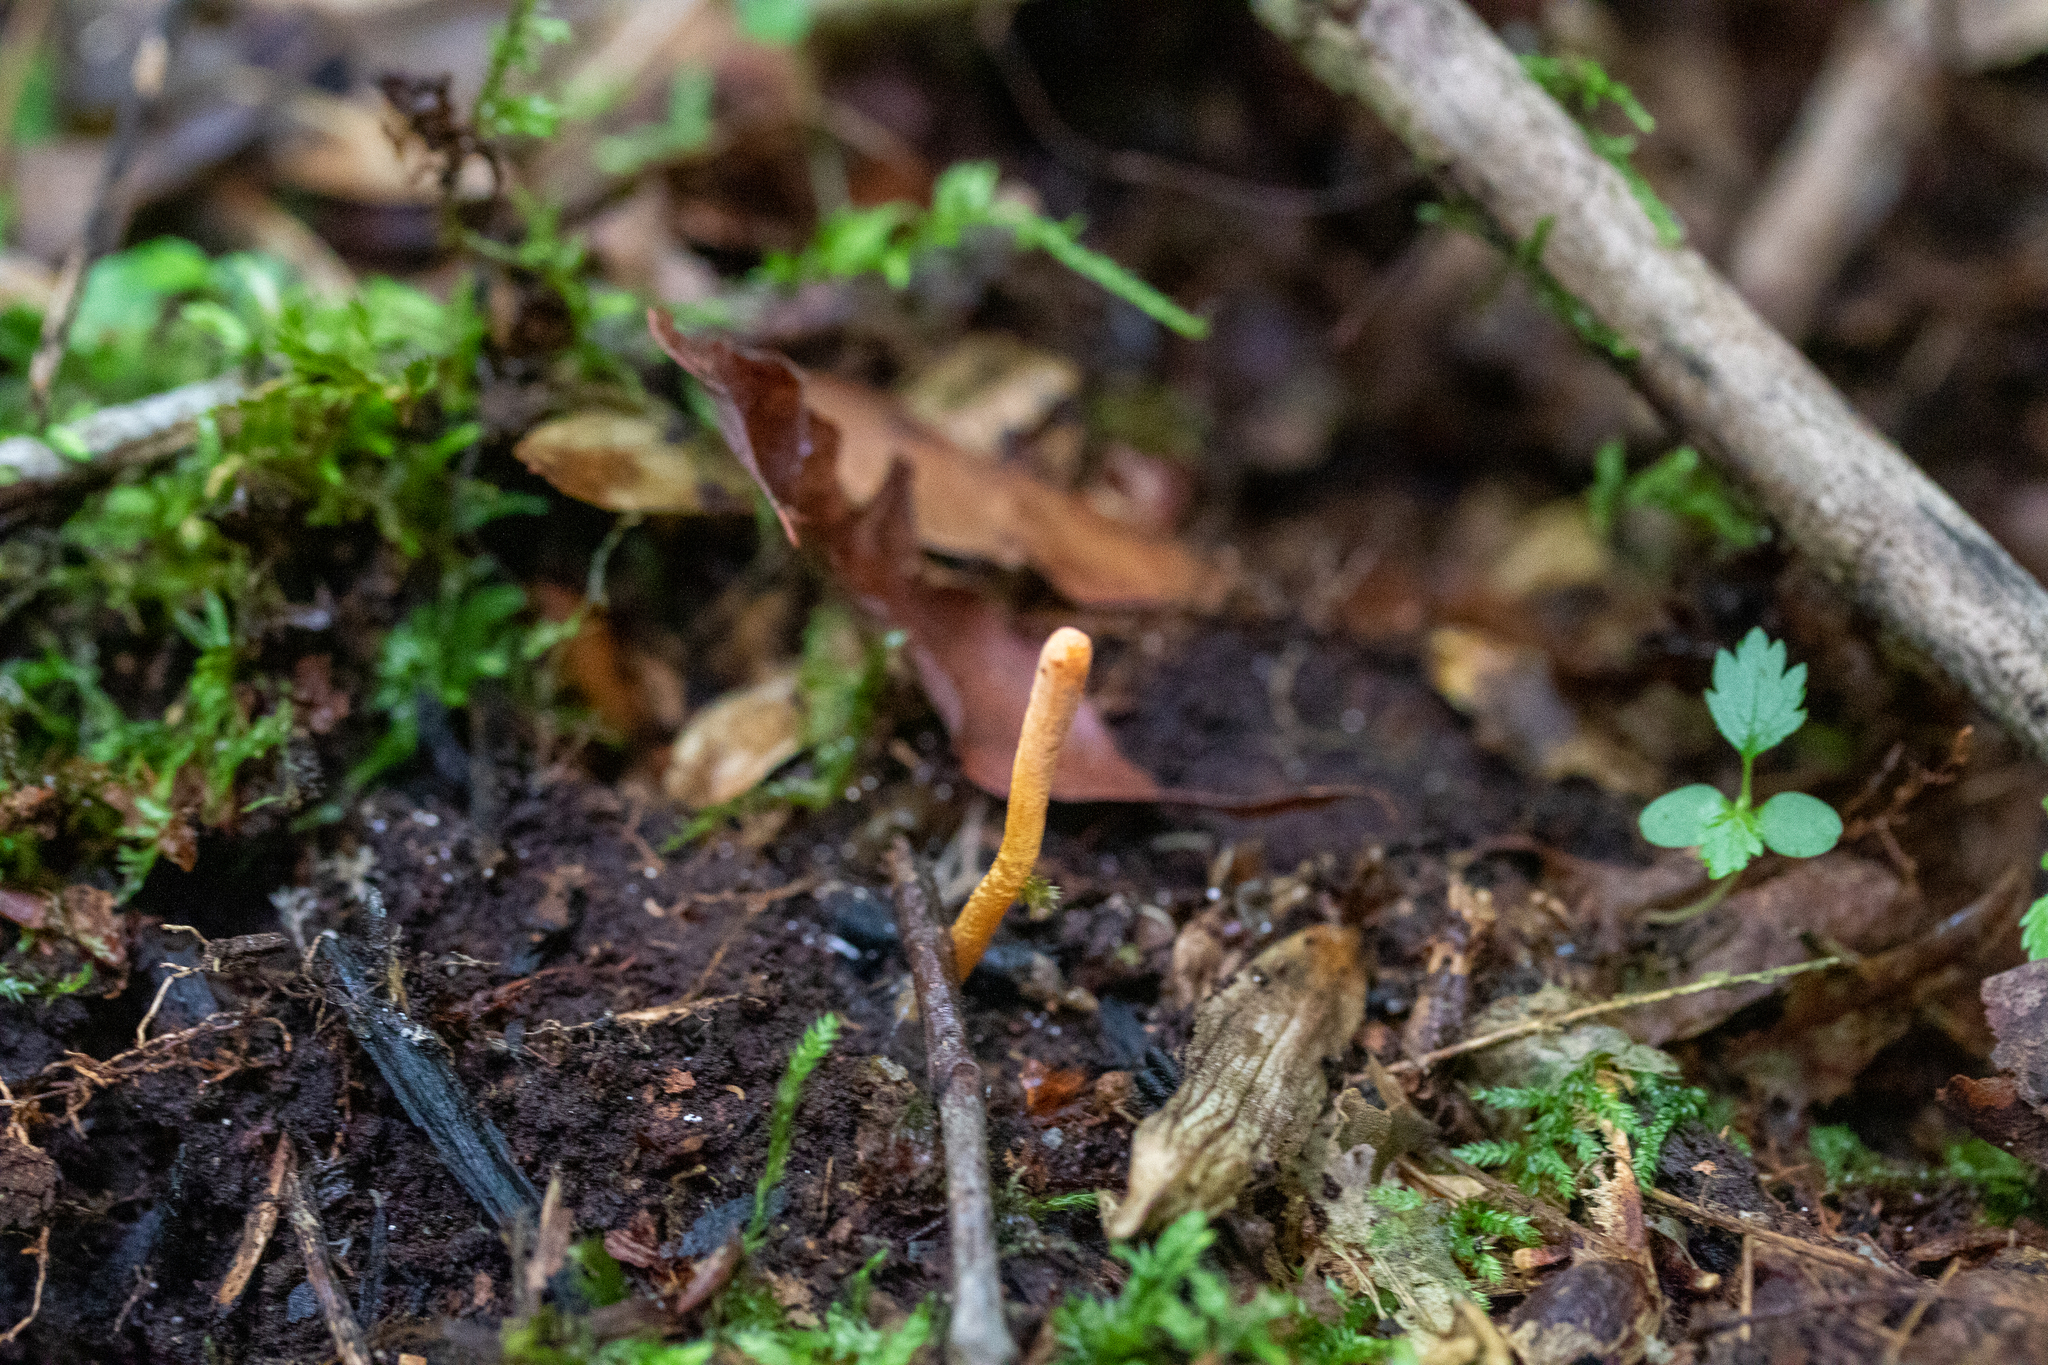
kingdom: Fungi
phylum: Ascomycota
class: Sordariomycetes
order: Hypocreales
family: Cordycipitaceae
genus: Cordyceps
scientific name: Cordyceps militaris
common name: Scarlet caterpillar fungus
